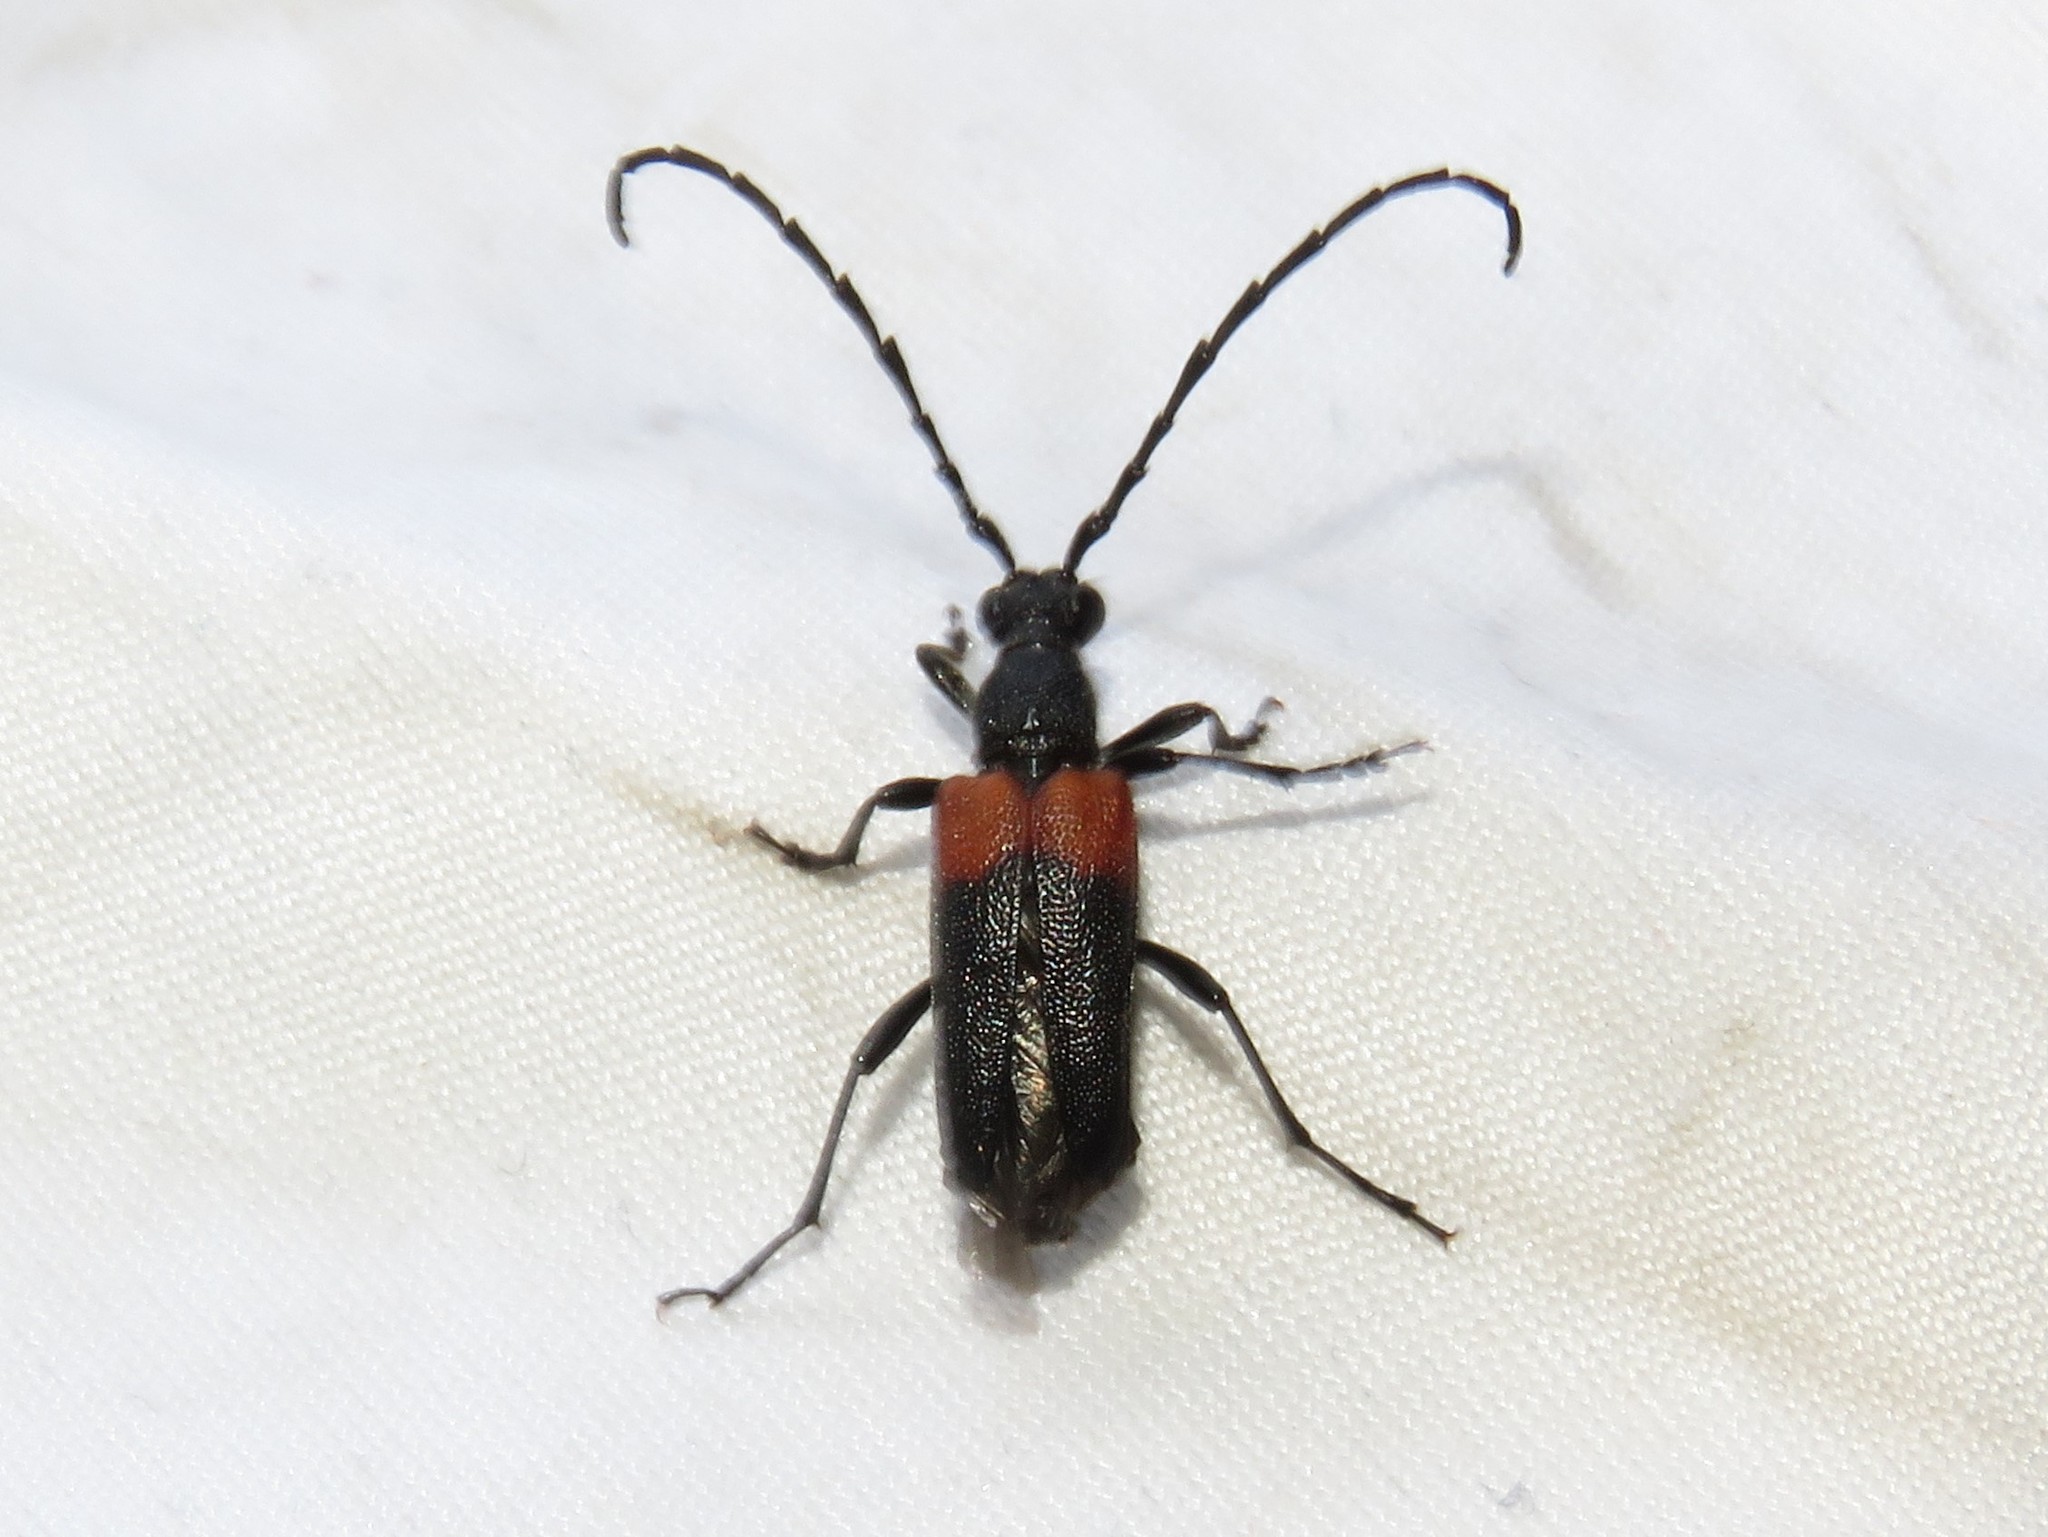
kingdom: Animalia
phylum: Arthropoda
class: Insecta
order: Coleoptera
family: Cerambycidae
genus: Stictoleptura
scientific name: Stictoleptura canadensis
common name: Red-shouldered pine borer
